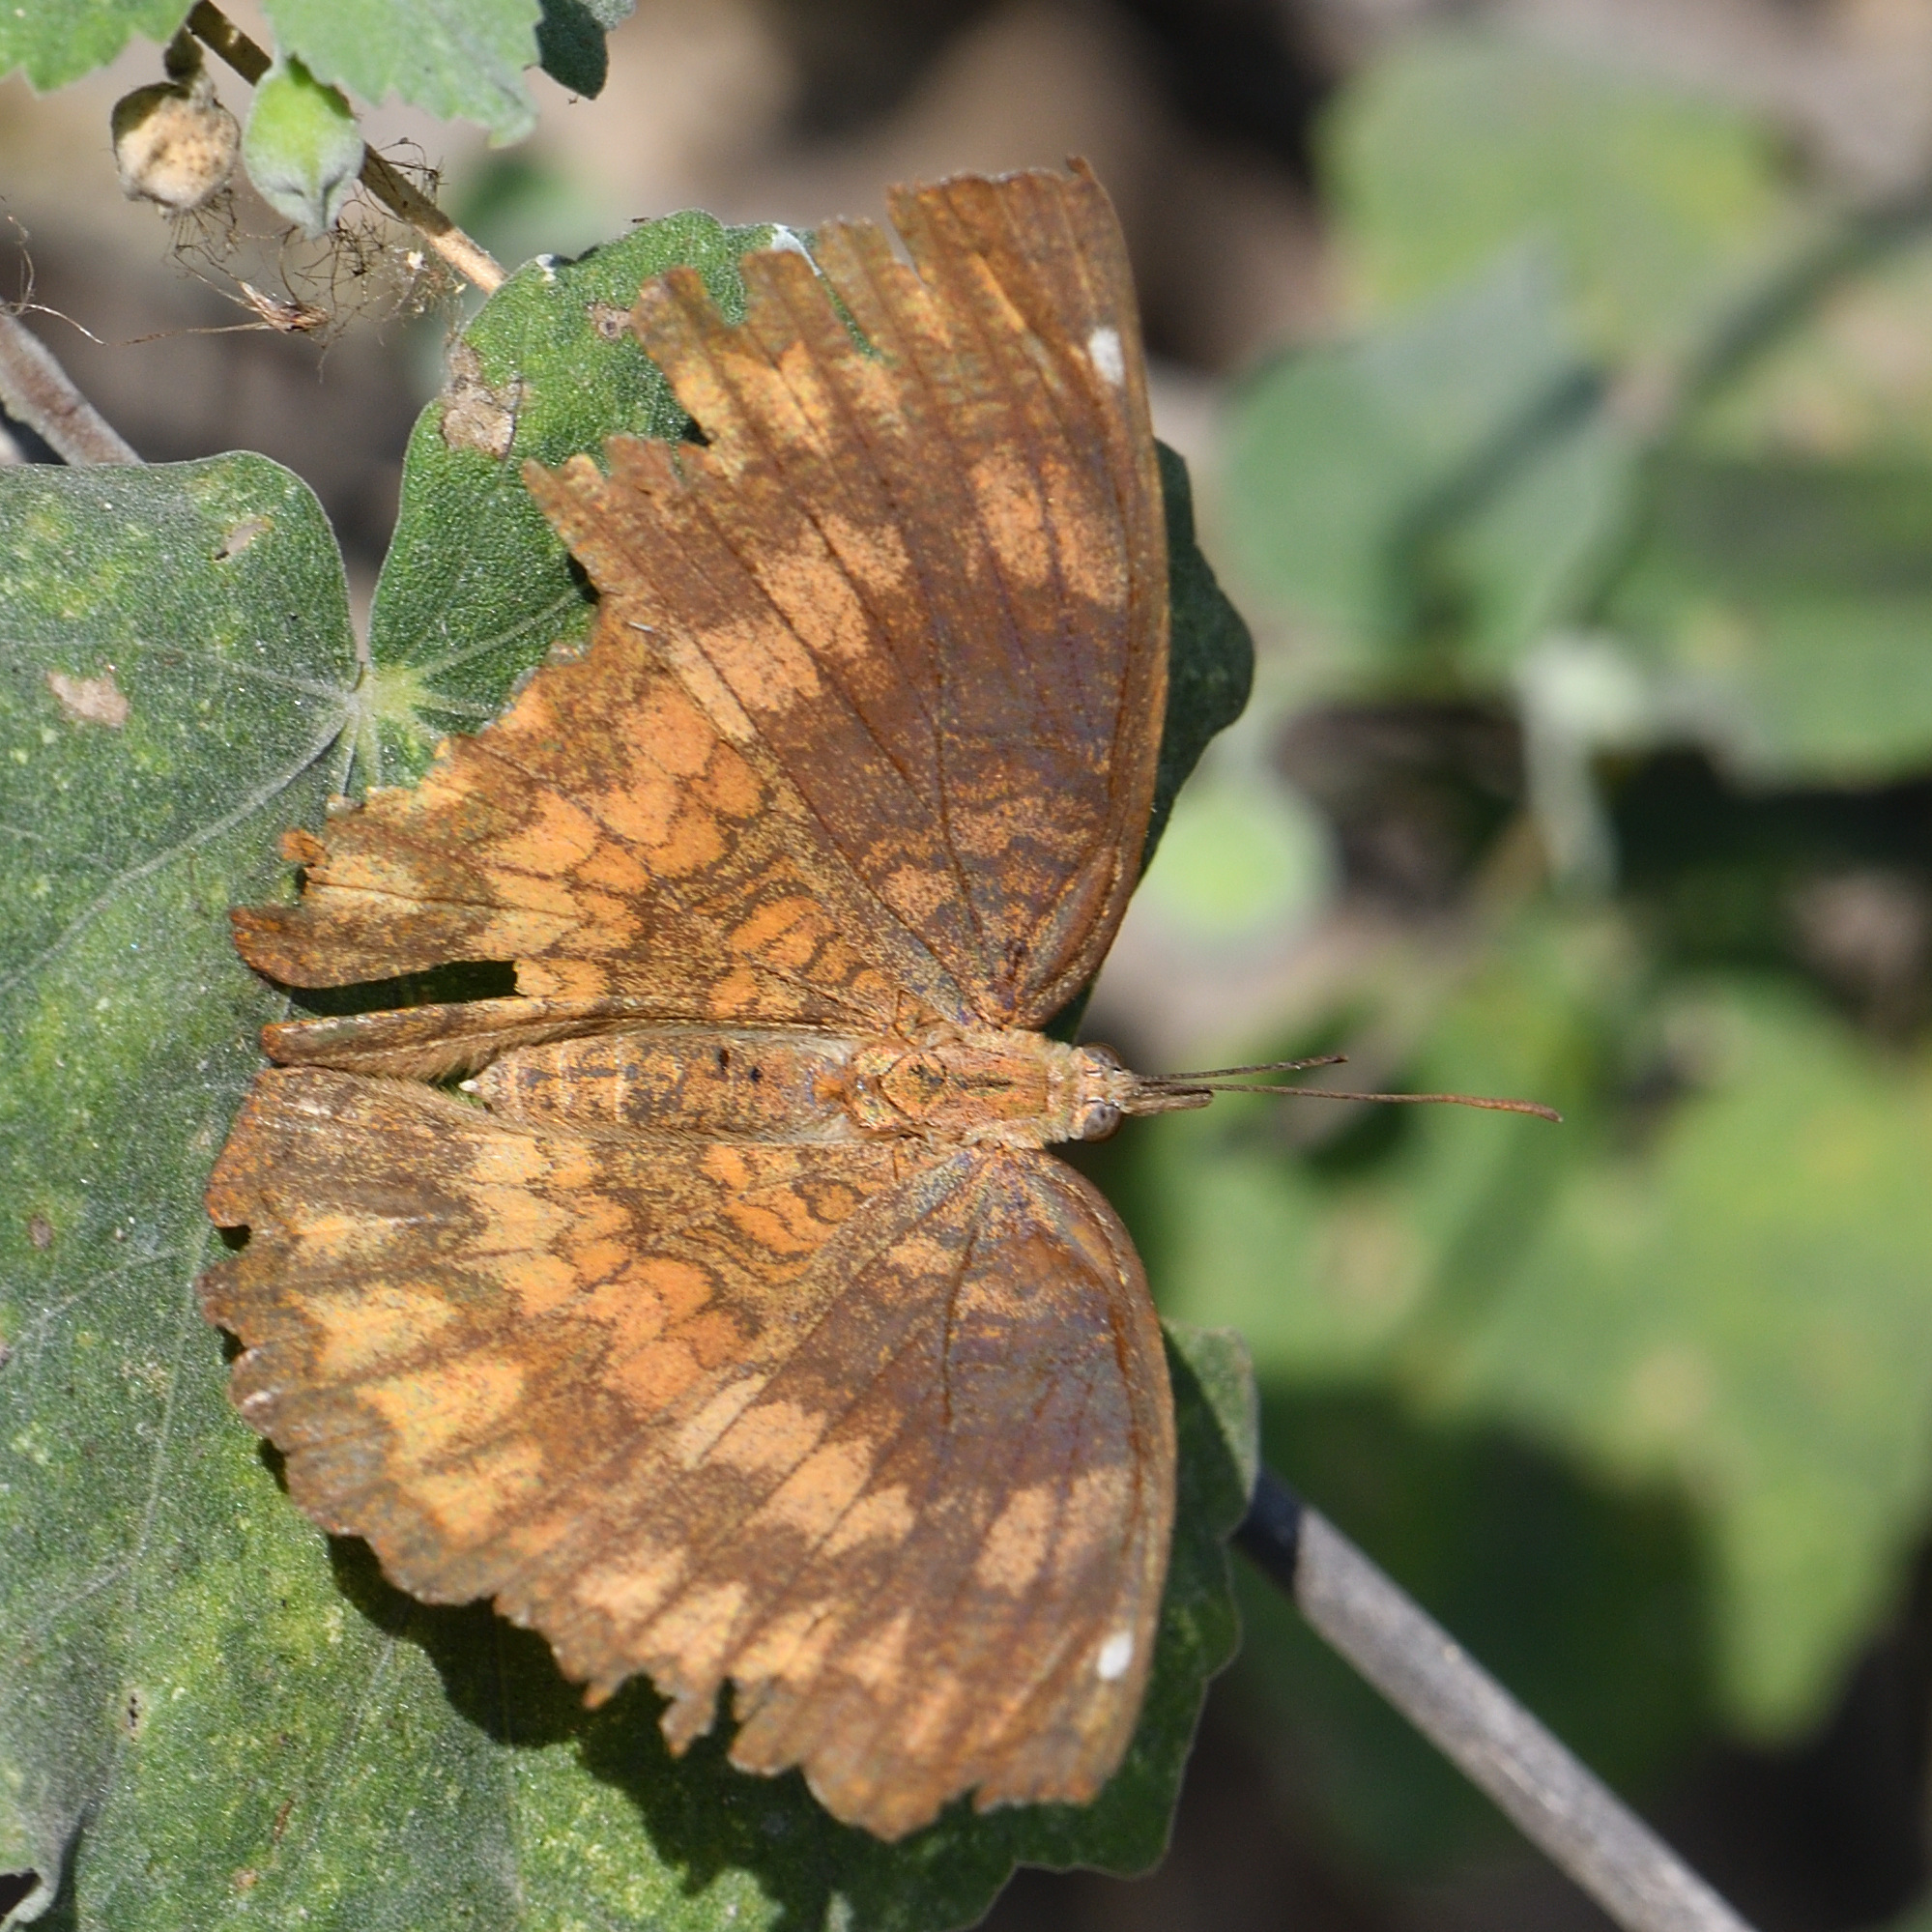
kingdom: Animalia
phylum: Arthropoda
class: Insecta
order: Lepidoptera
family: Nymphalidae
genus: Ariadne
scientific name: Ariadne merione
